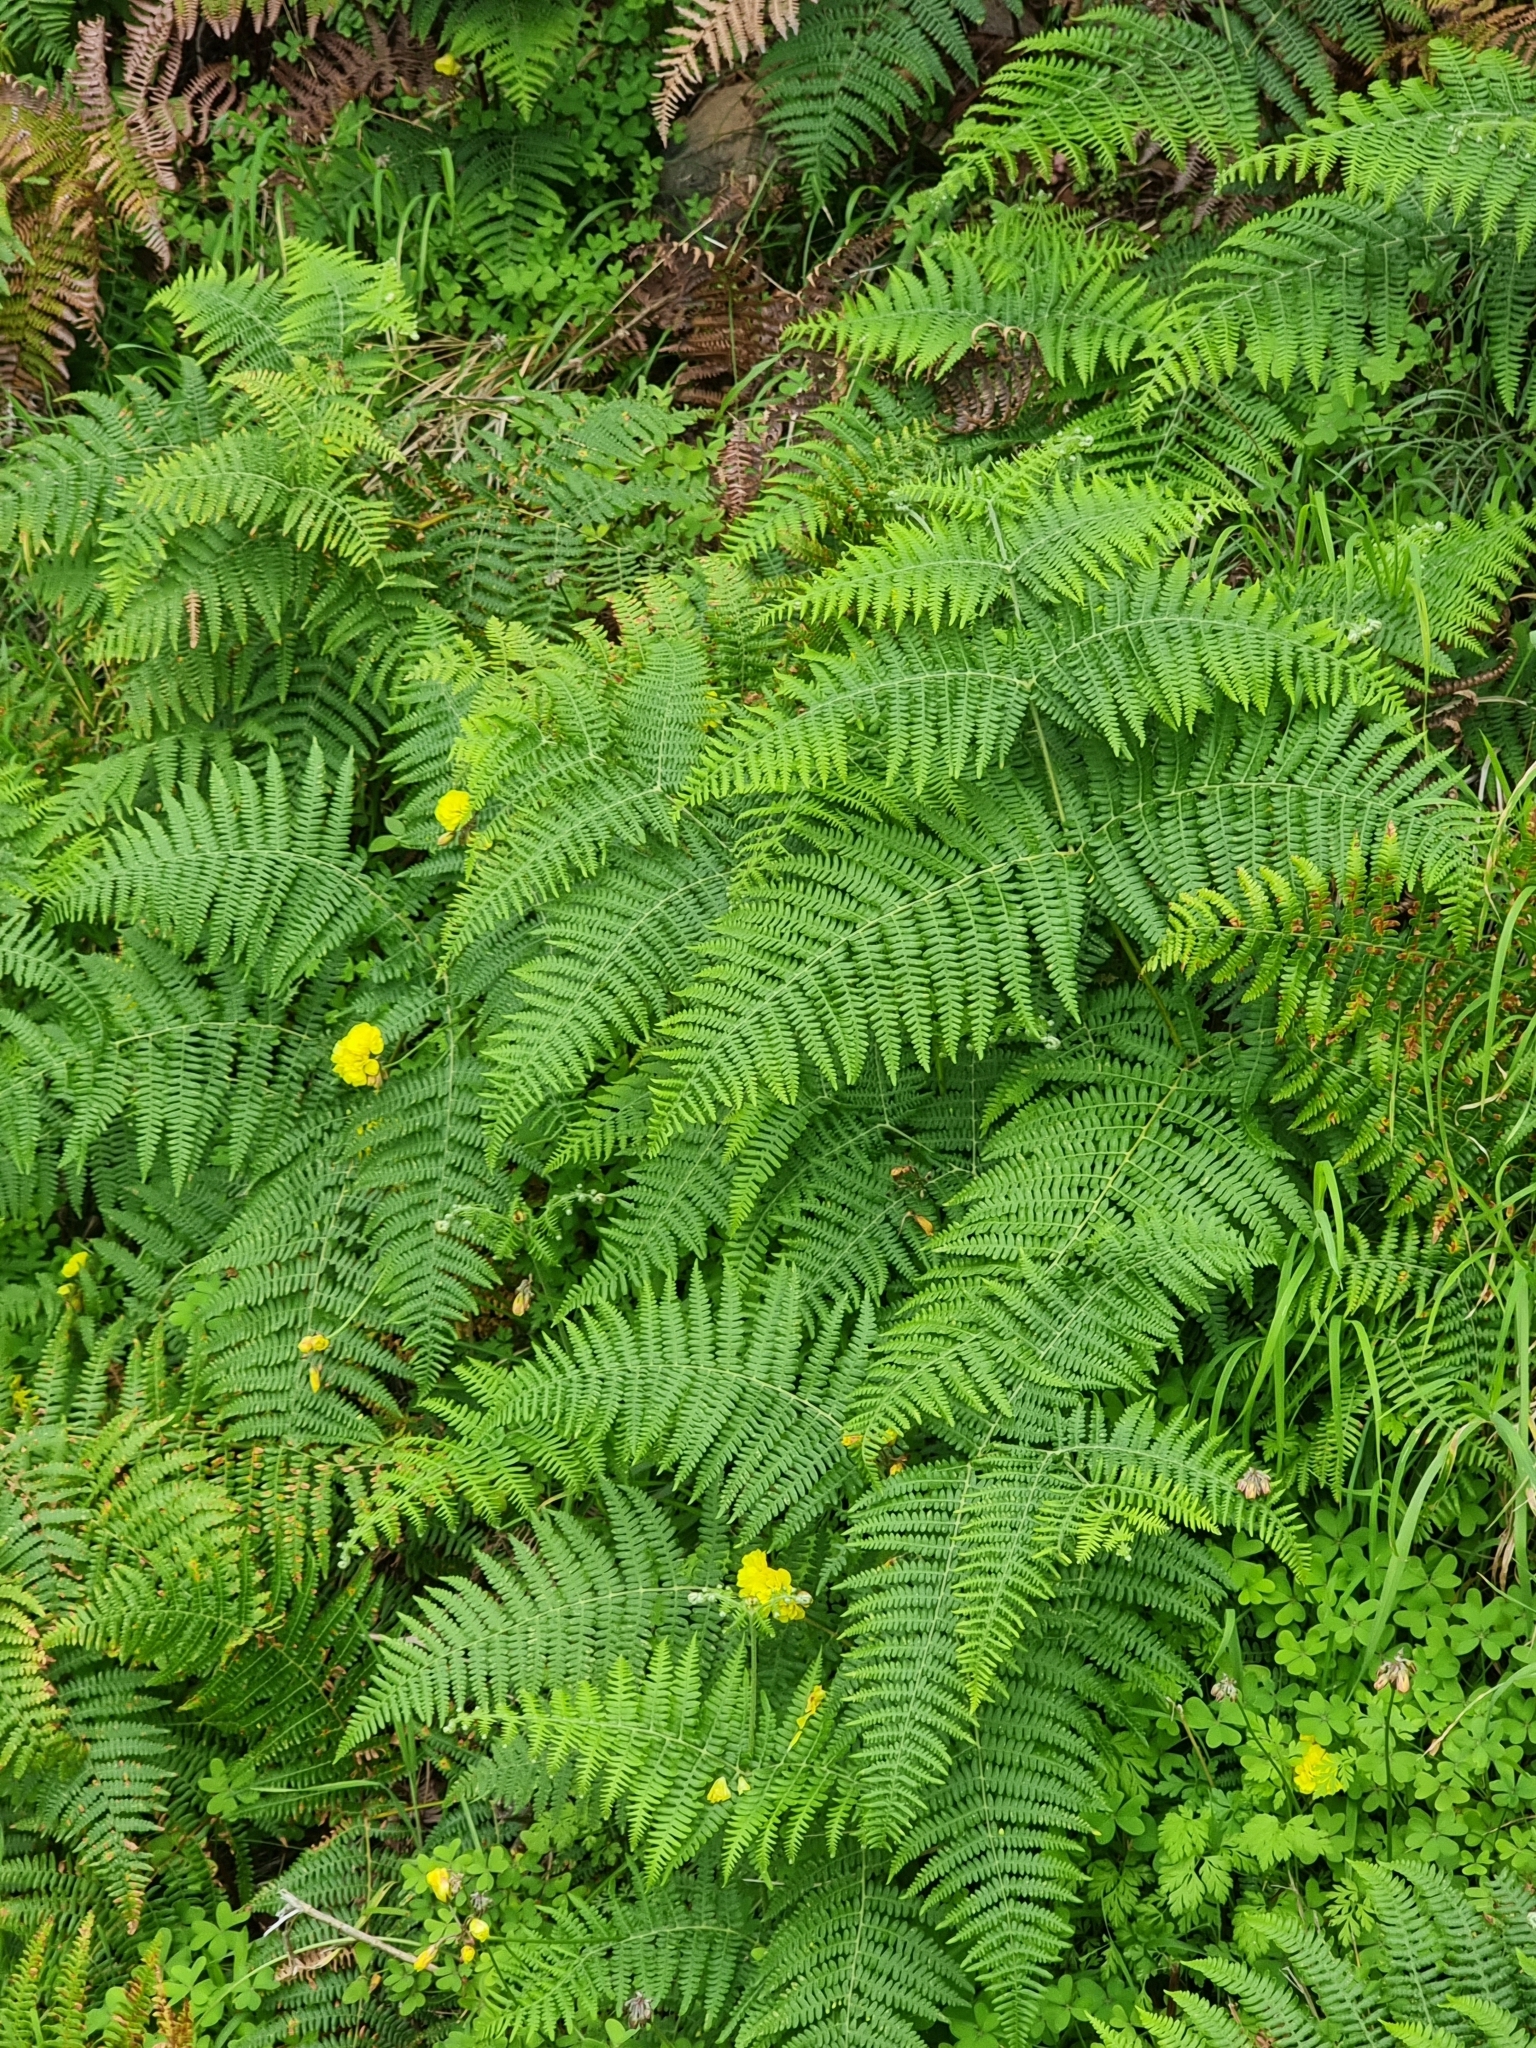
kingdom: Plantae
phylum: Tracheophyta
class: Polypodiopsida
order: Polypodiales
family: Dennstaedtiaceae
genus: Pteridium
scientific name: Pteridium aquilinum
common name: Bracken
